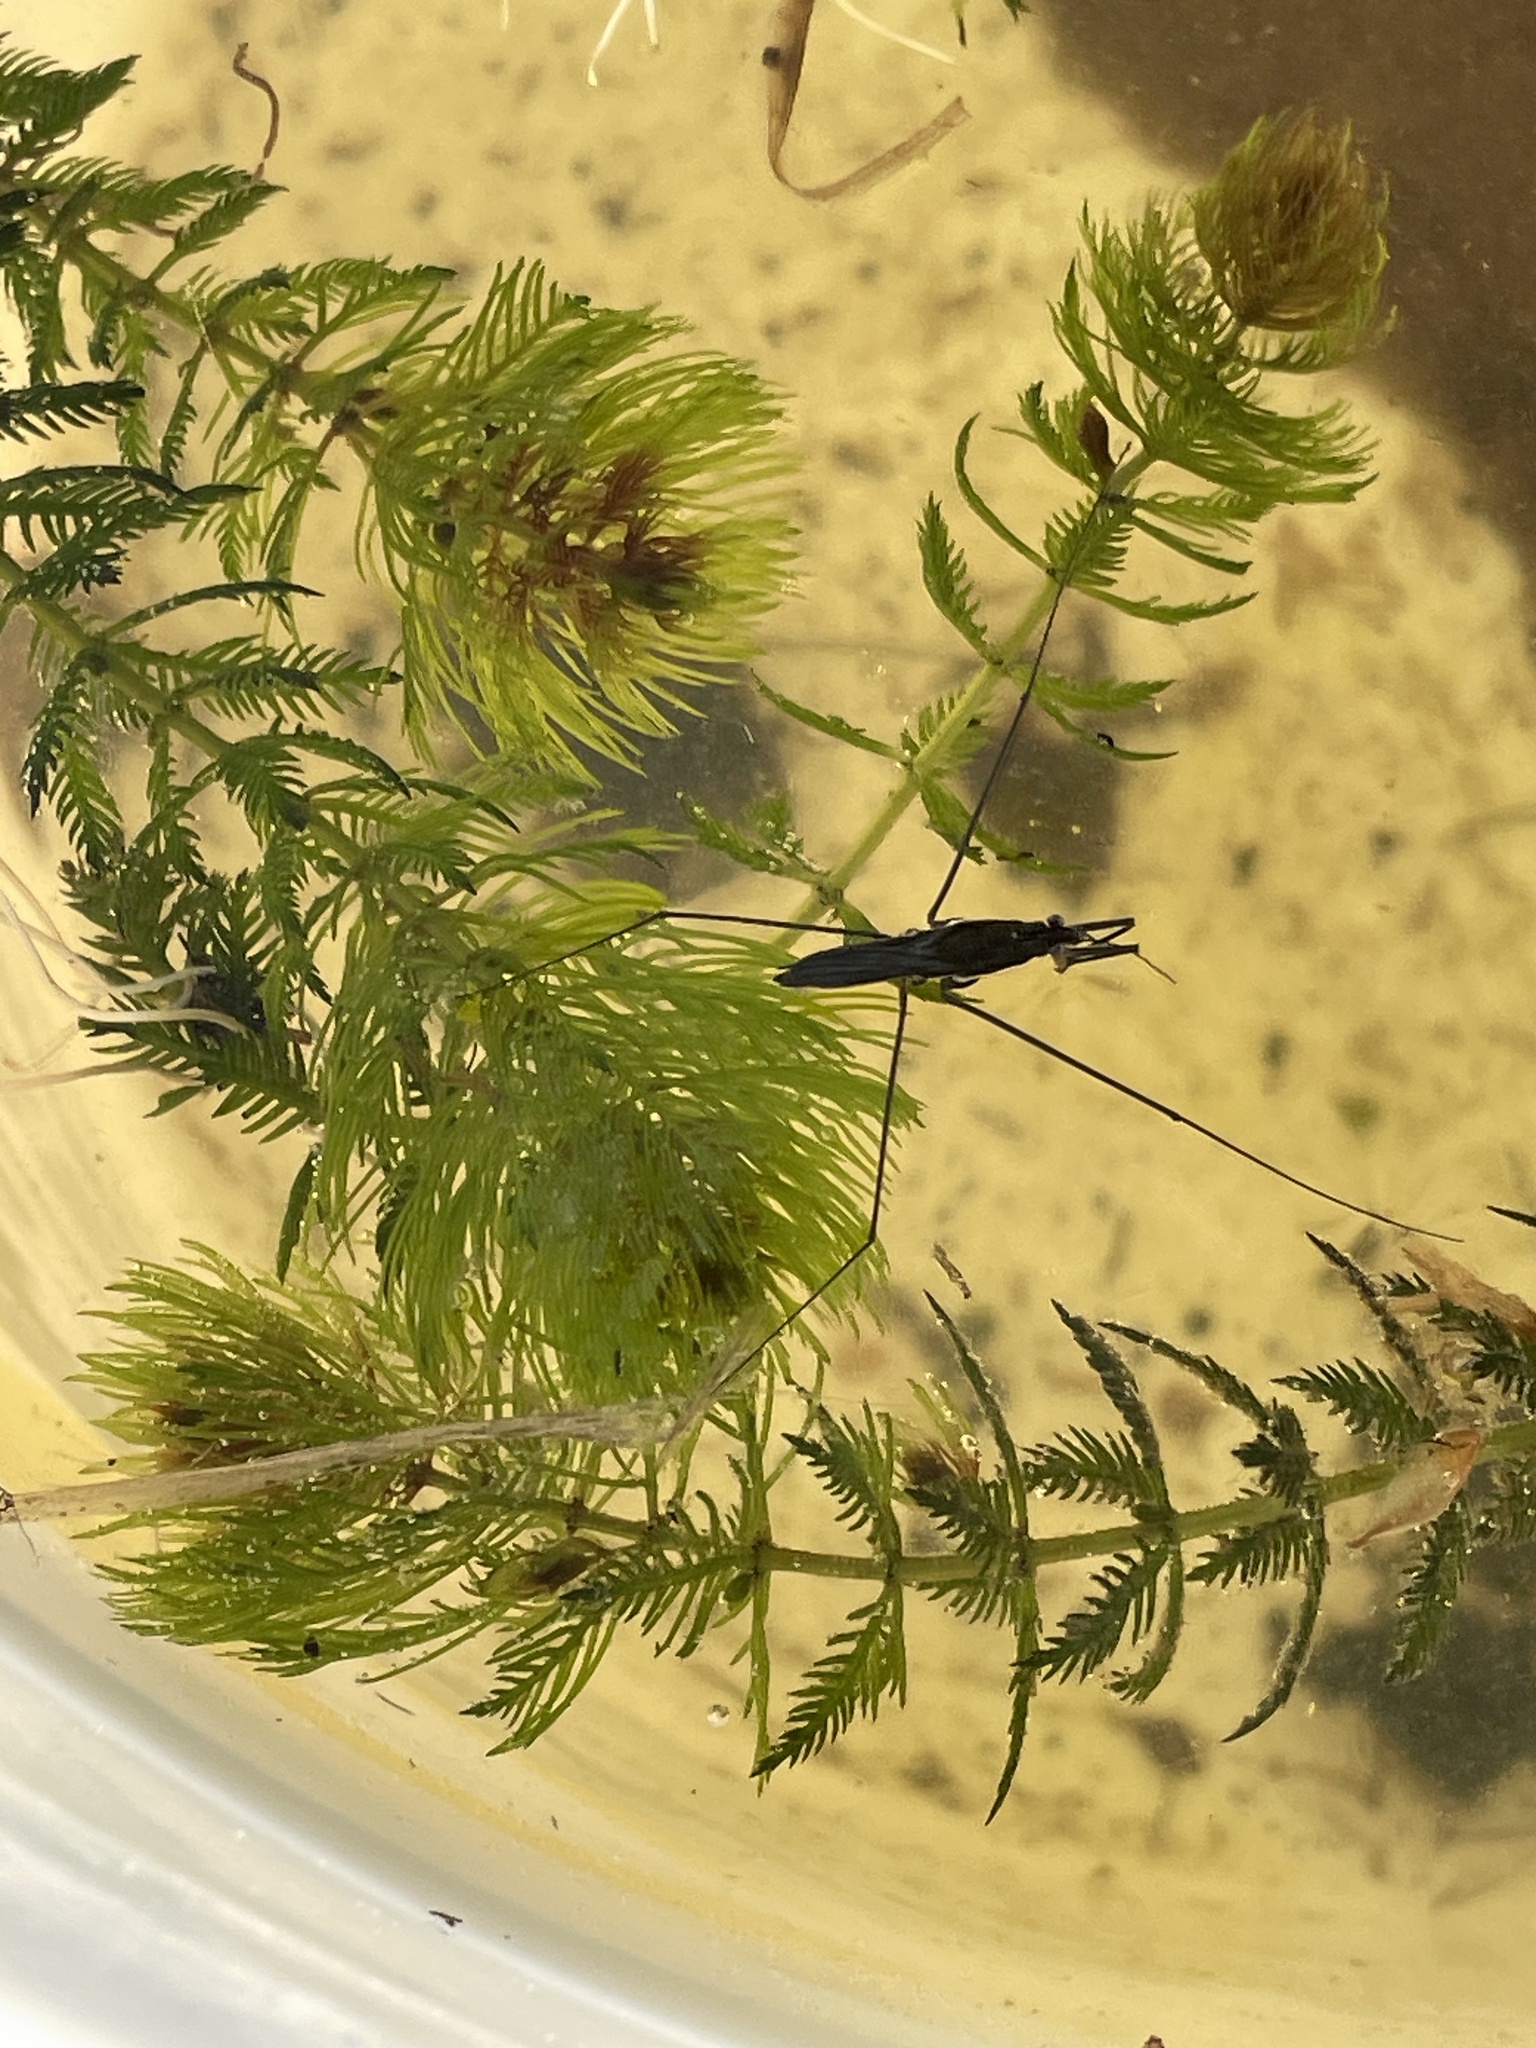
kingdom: Animalia
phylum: Arthropoda
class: Insecta
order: Hemiptera
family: Gerridae
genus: Aquarius
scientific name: Aquarius conformis
